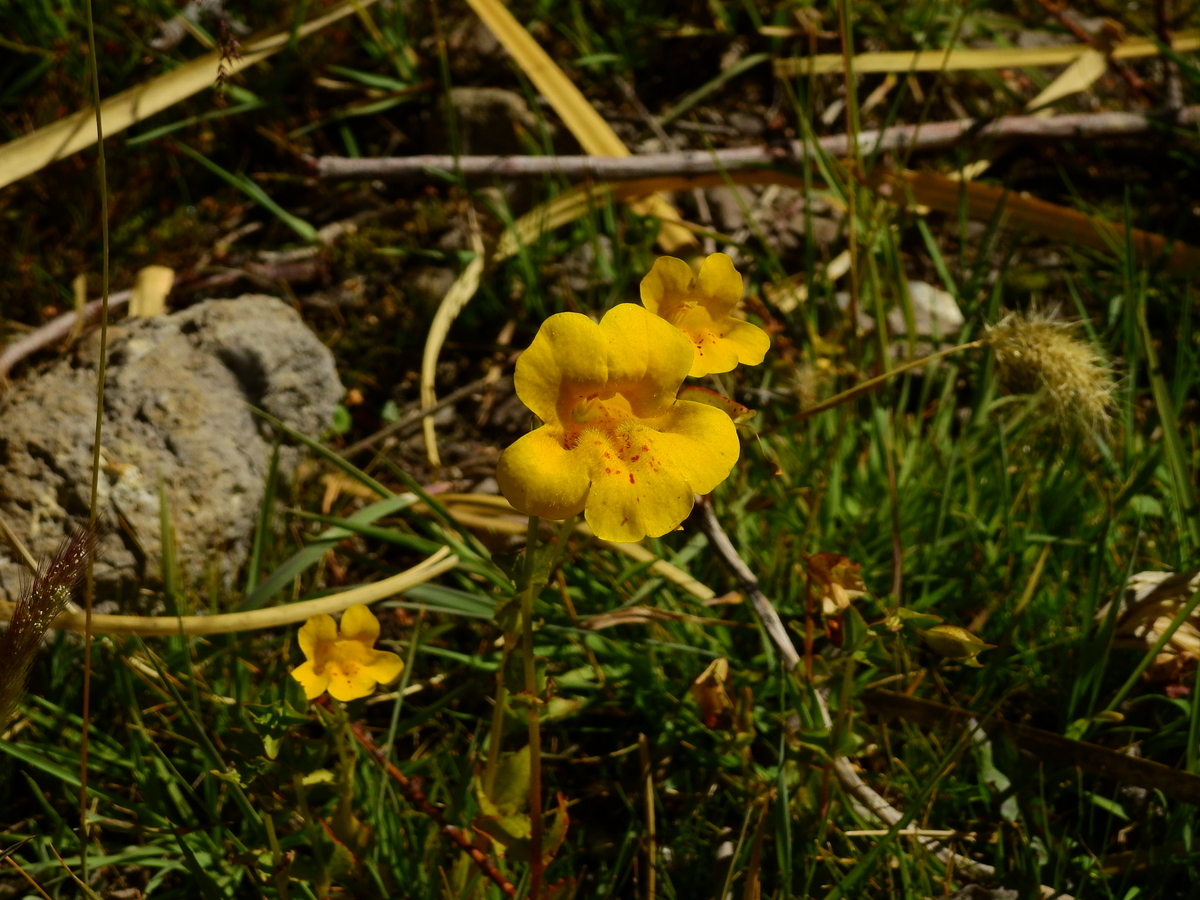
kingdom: Plantae
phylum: Tracheophyta
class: Magnoliopsida
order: Lamiales
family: Phrymaceae
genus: Erythranthe
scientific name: Erythranthe lutea
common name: Yellow monkey-flower
